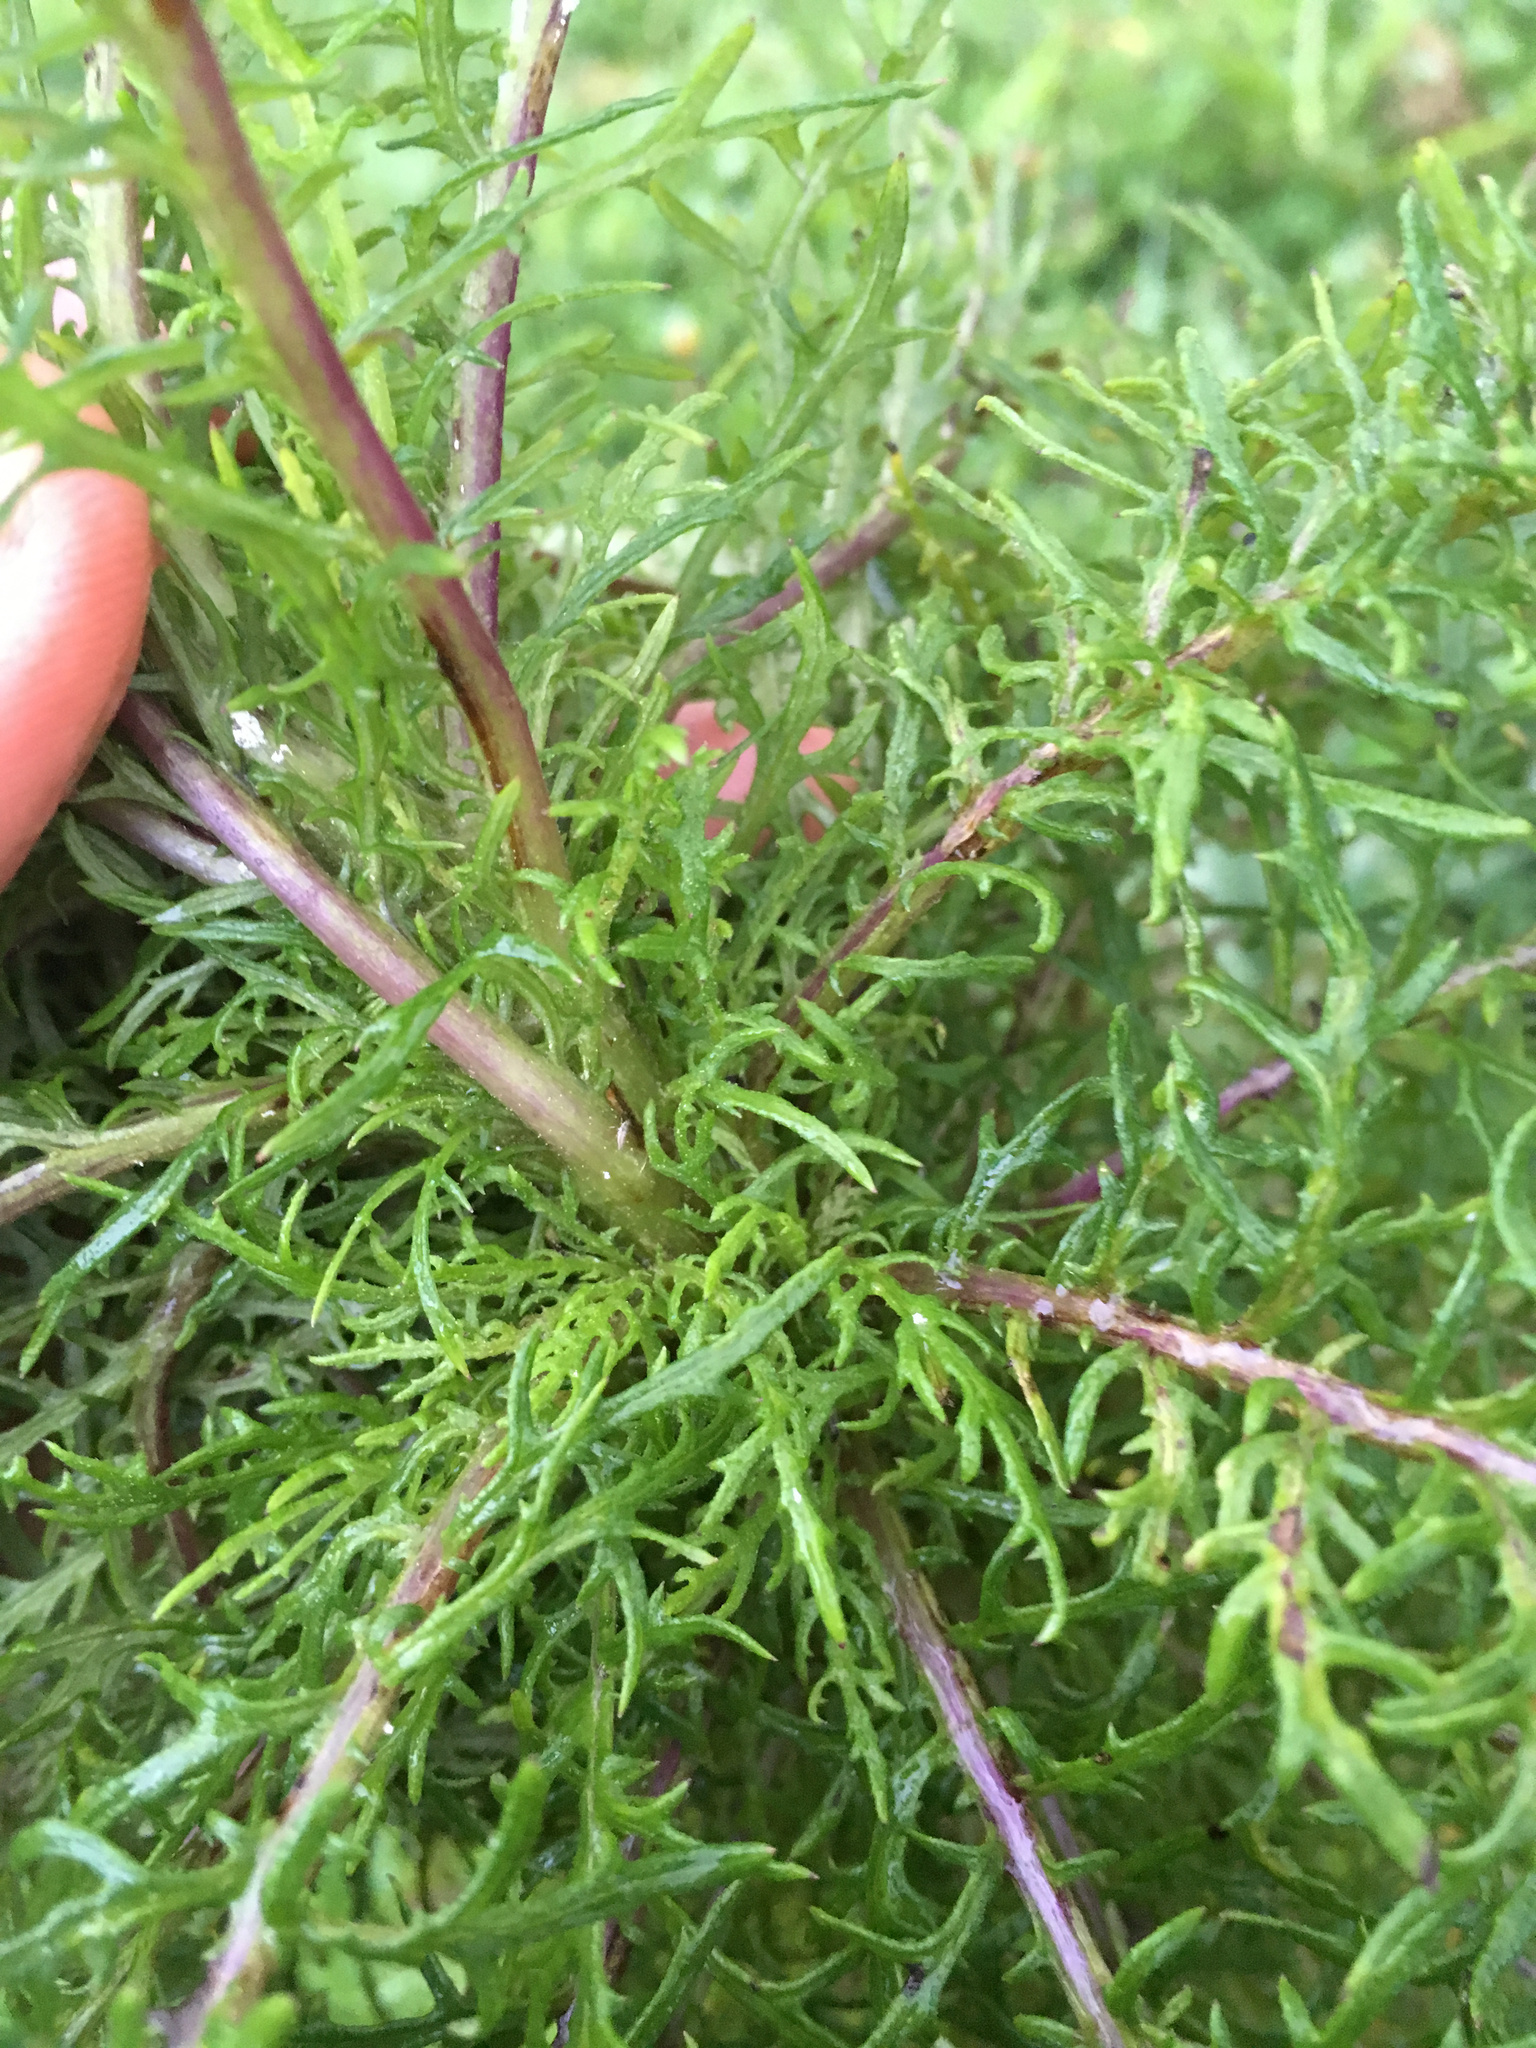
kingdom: Plantae
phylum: Tracheophyta
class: Magnoliopsida
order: Asterales
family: Asteraceae
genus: Senecio
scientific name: Senecio bipinnatisectus
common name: Australian fireweed
